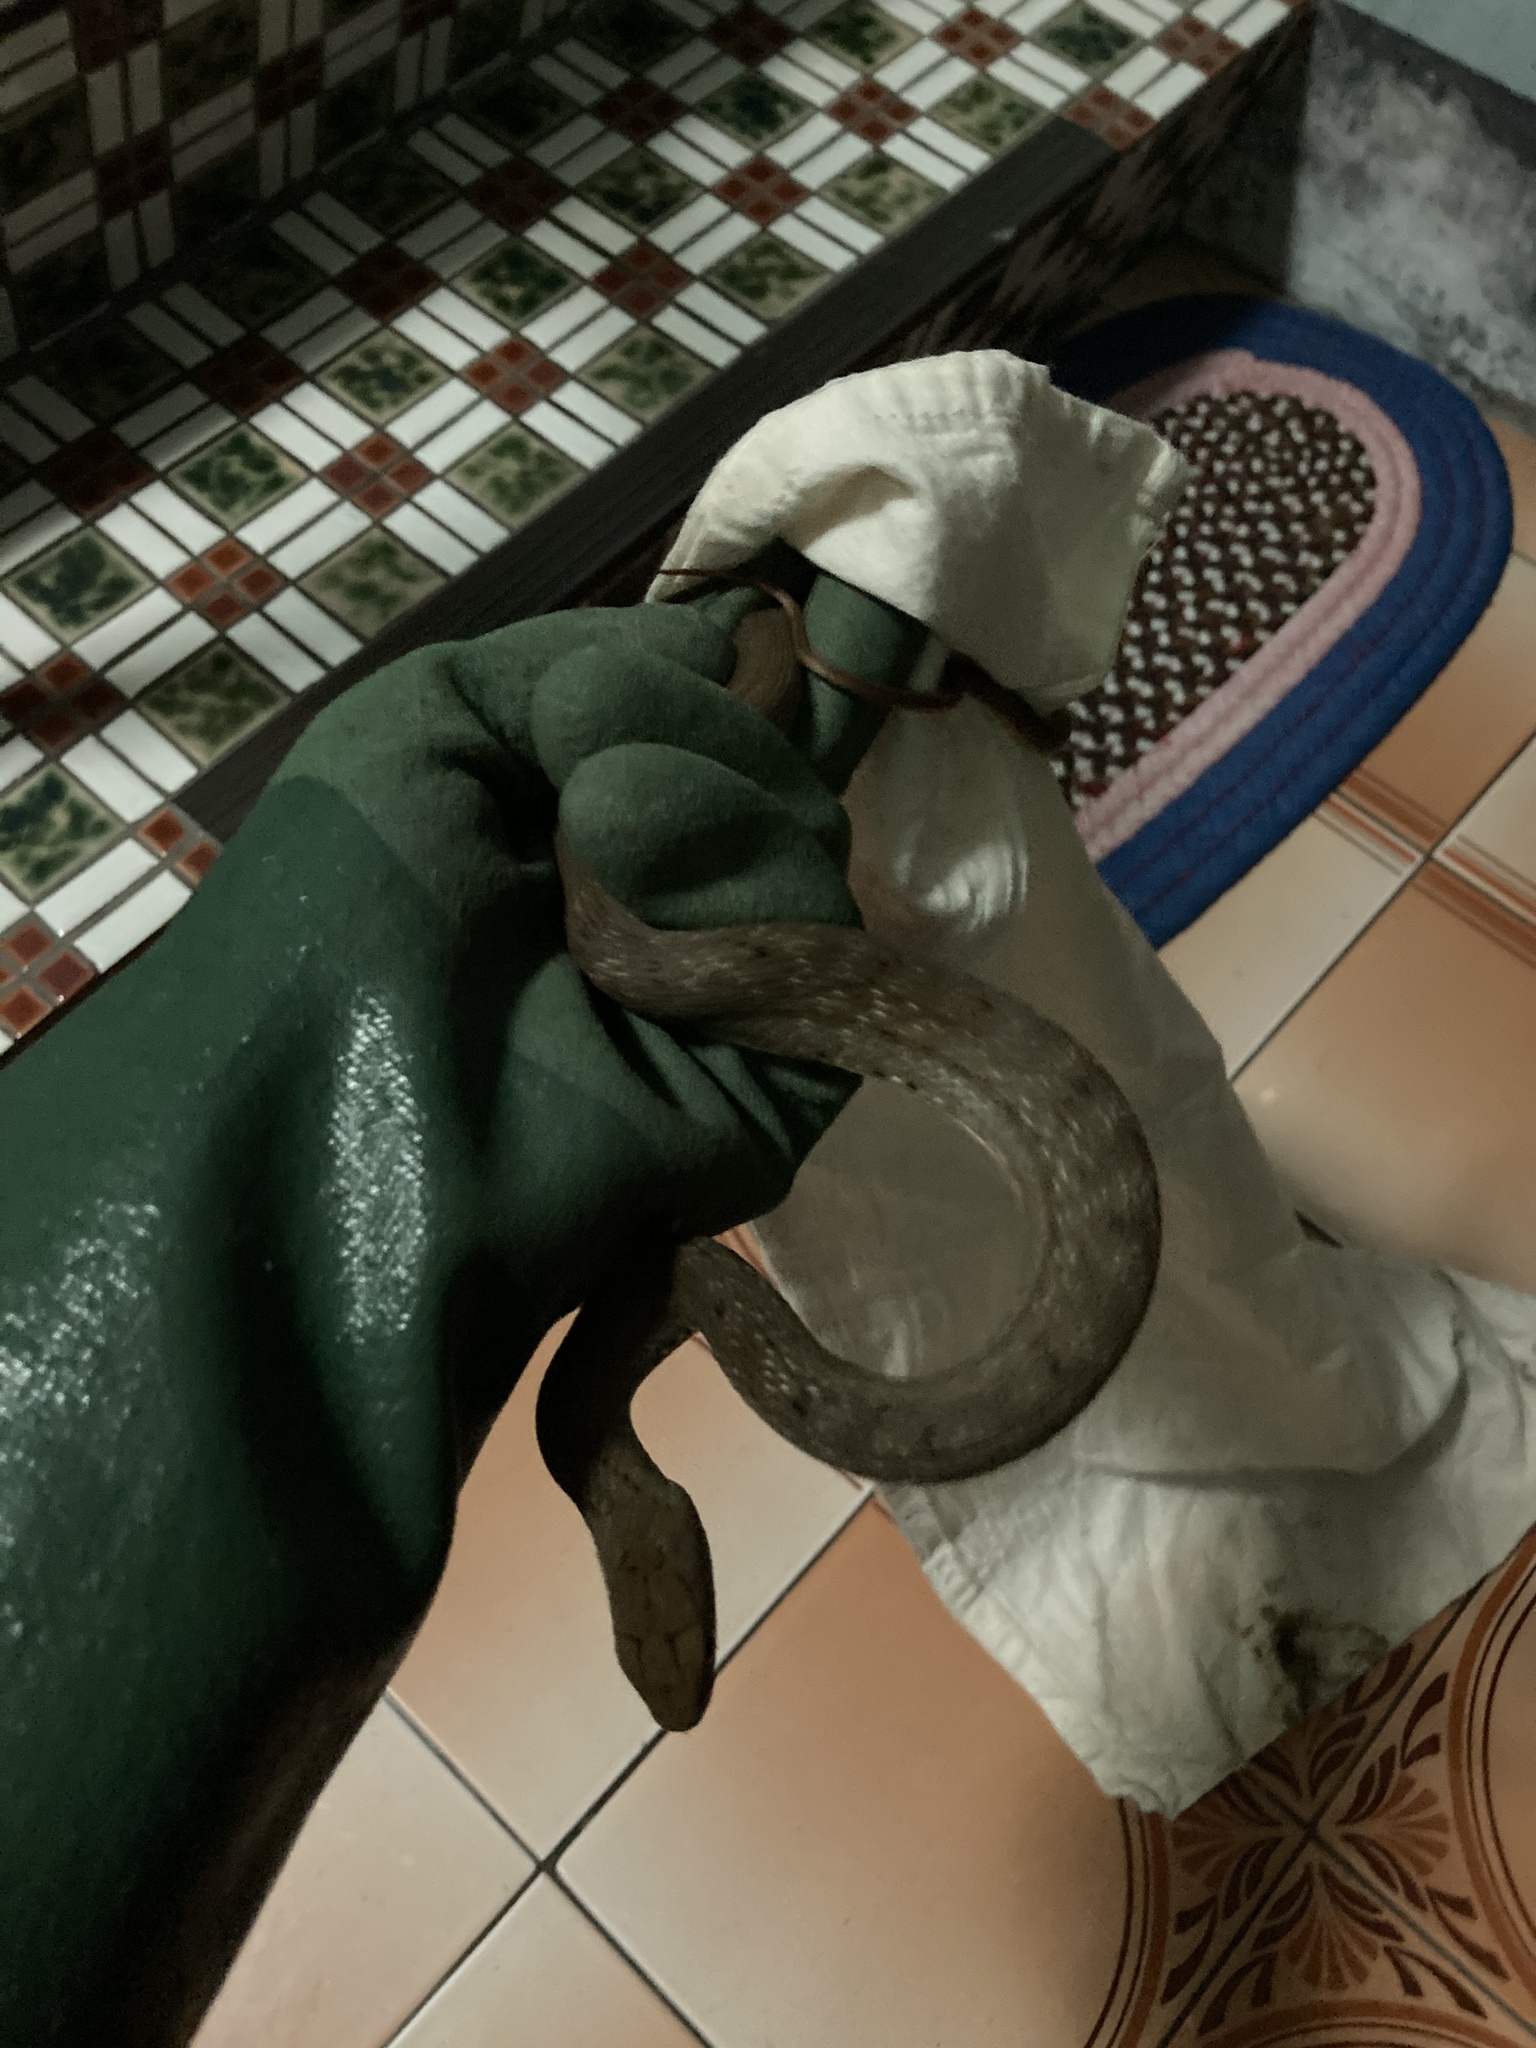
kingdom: Animalia
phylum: Chordata
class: Squamata
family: Colubridae
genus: Elaphe
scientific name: Elaphe carinata
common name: Taiwan stink snake
